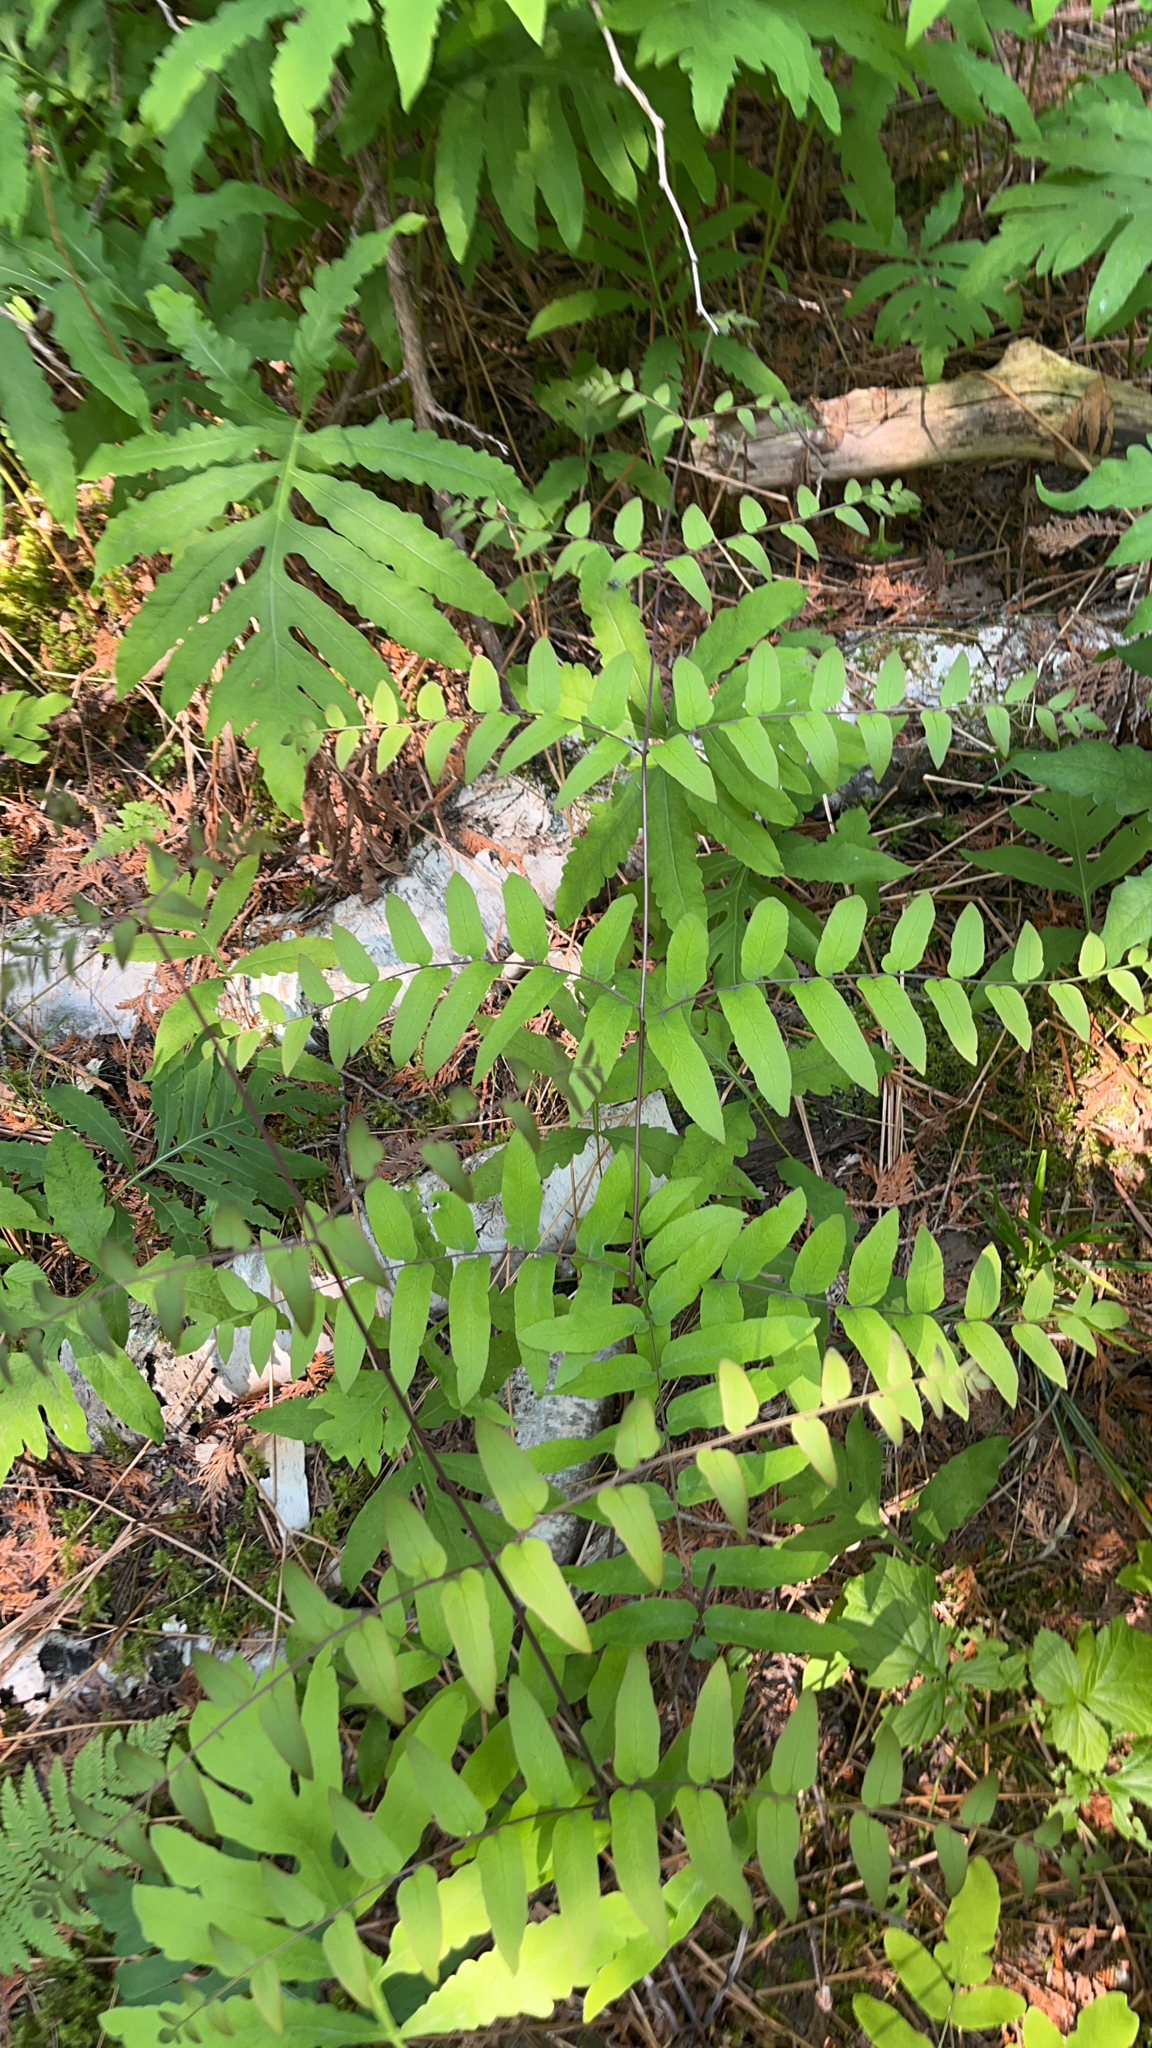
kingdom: Plantae
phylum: Tracheophyta
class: Polypodiopsida
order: Osmundales
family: Osmundaceae
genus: Osmunda
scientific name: Osmunda spectabilis
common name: American royal fern
